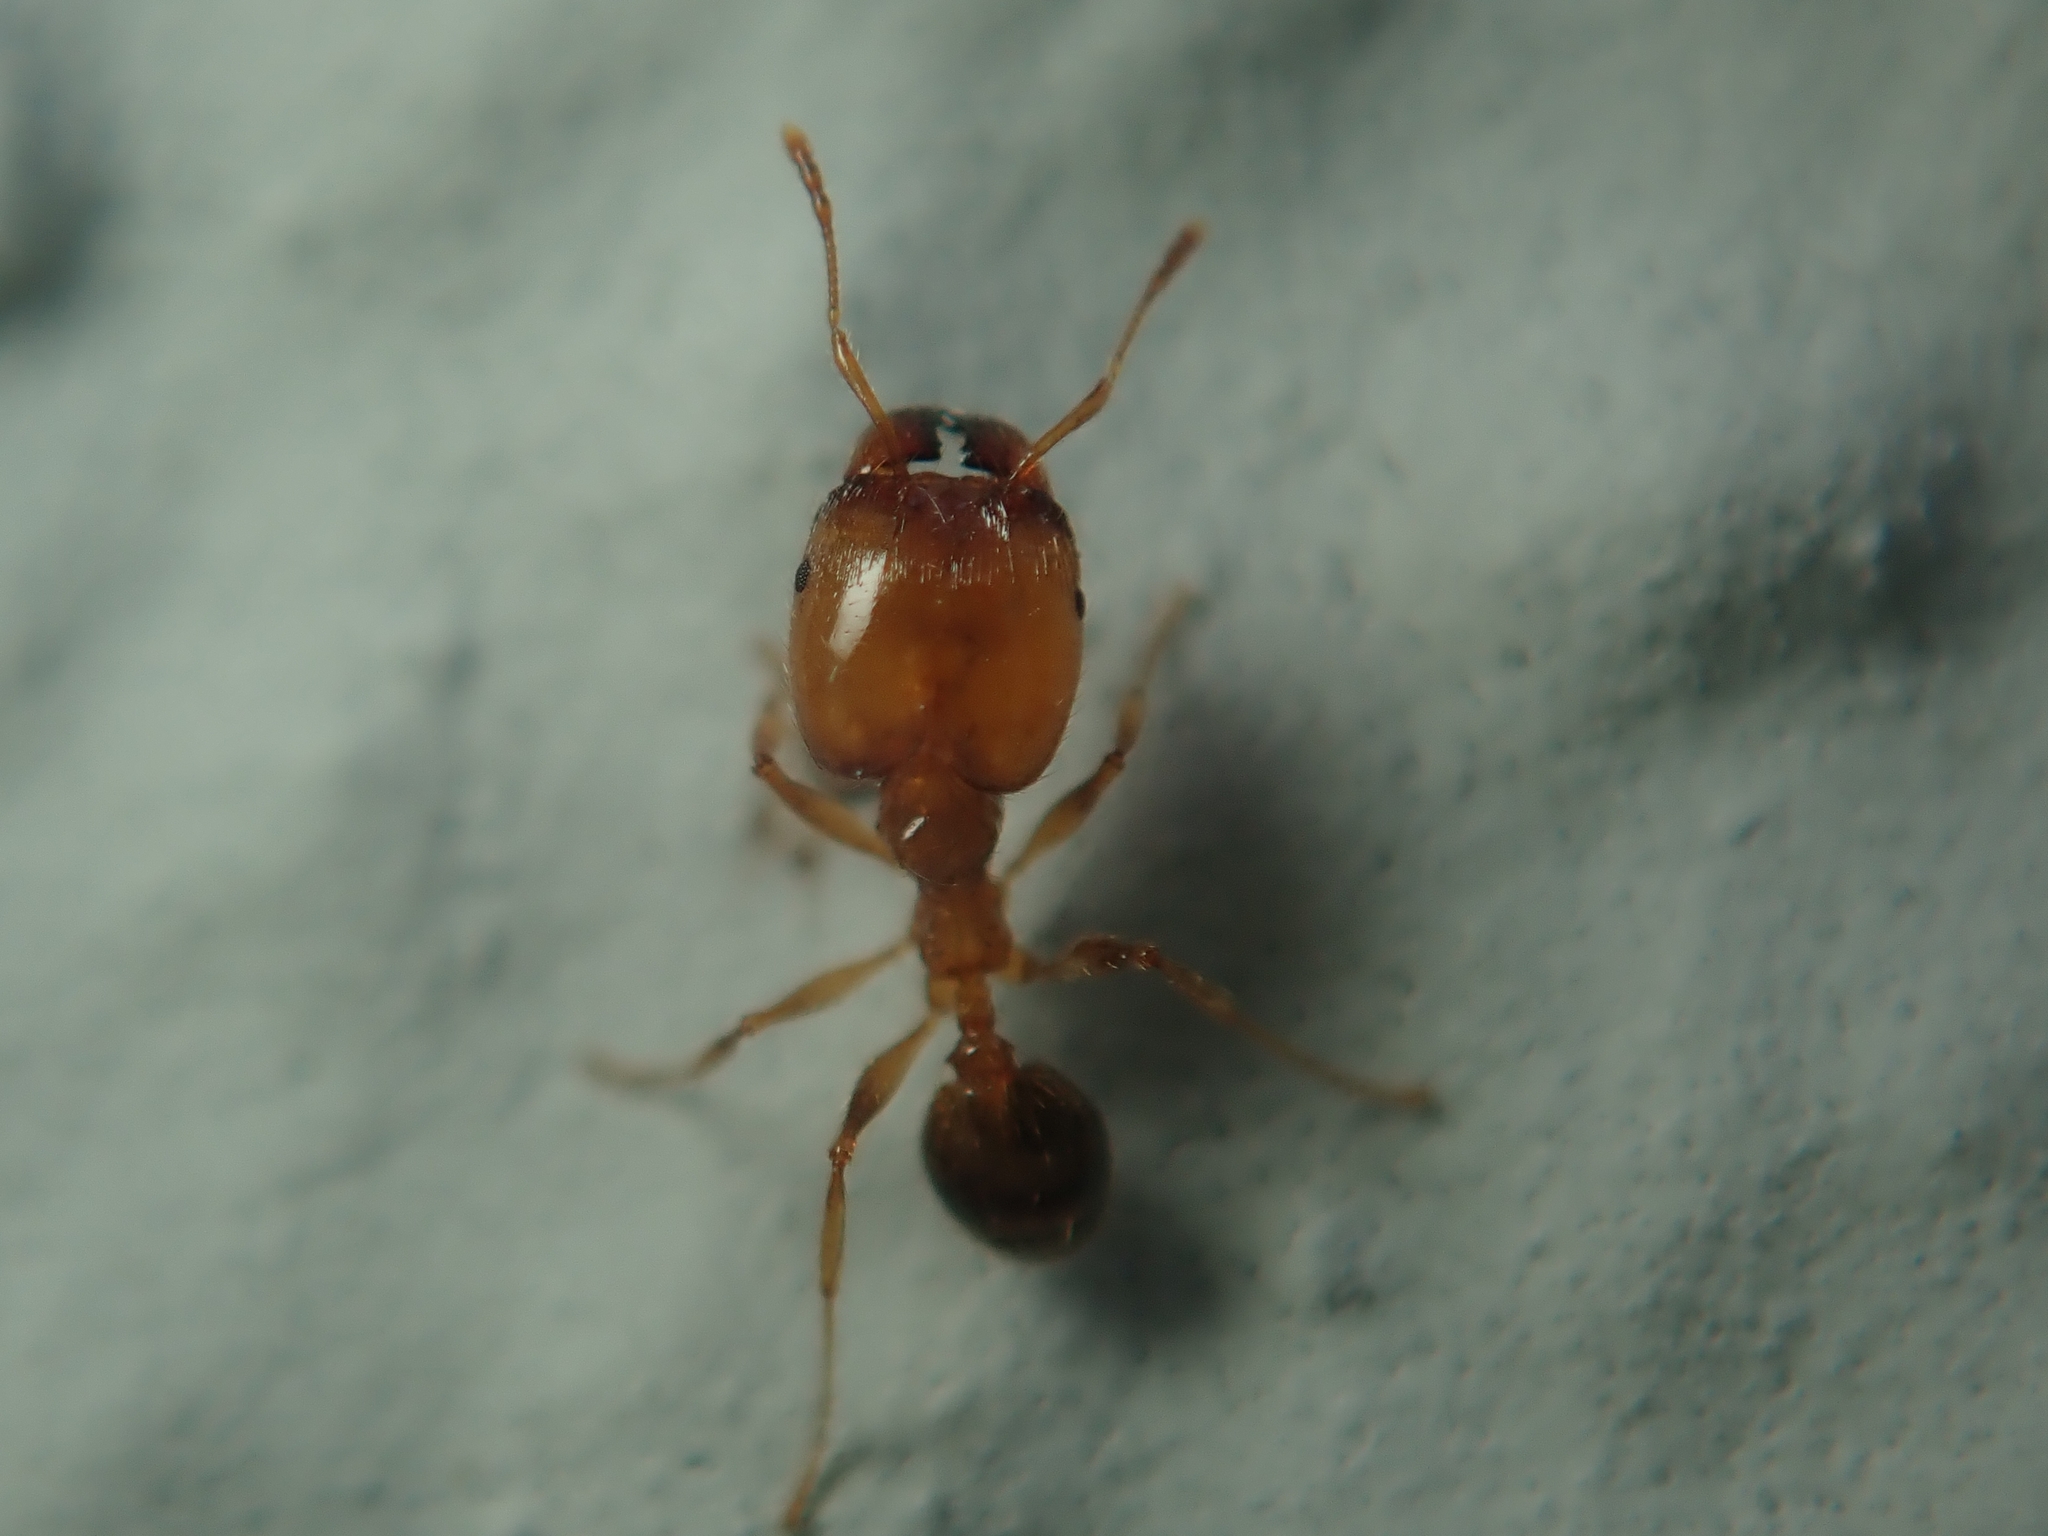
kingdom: Animalia
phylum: Arthropoda
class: Insecta
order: Hymenoptera
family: Formicidae
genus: Pheidole
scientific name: Pheidole pallidula
